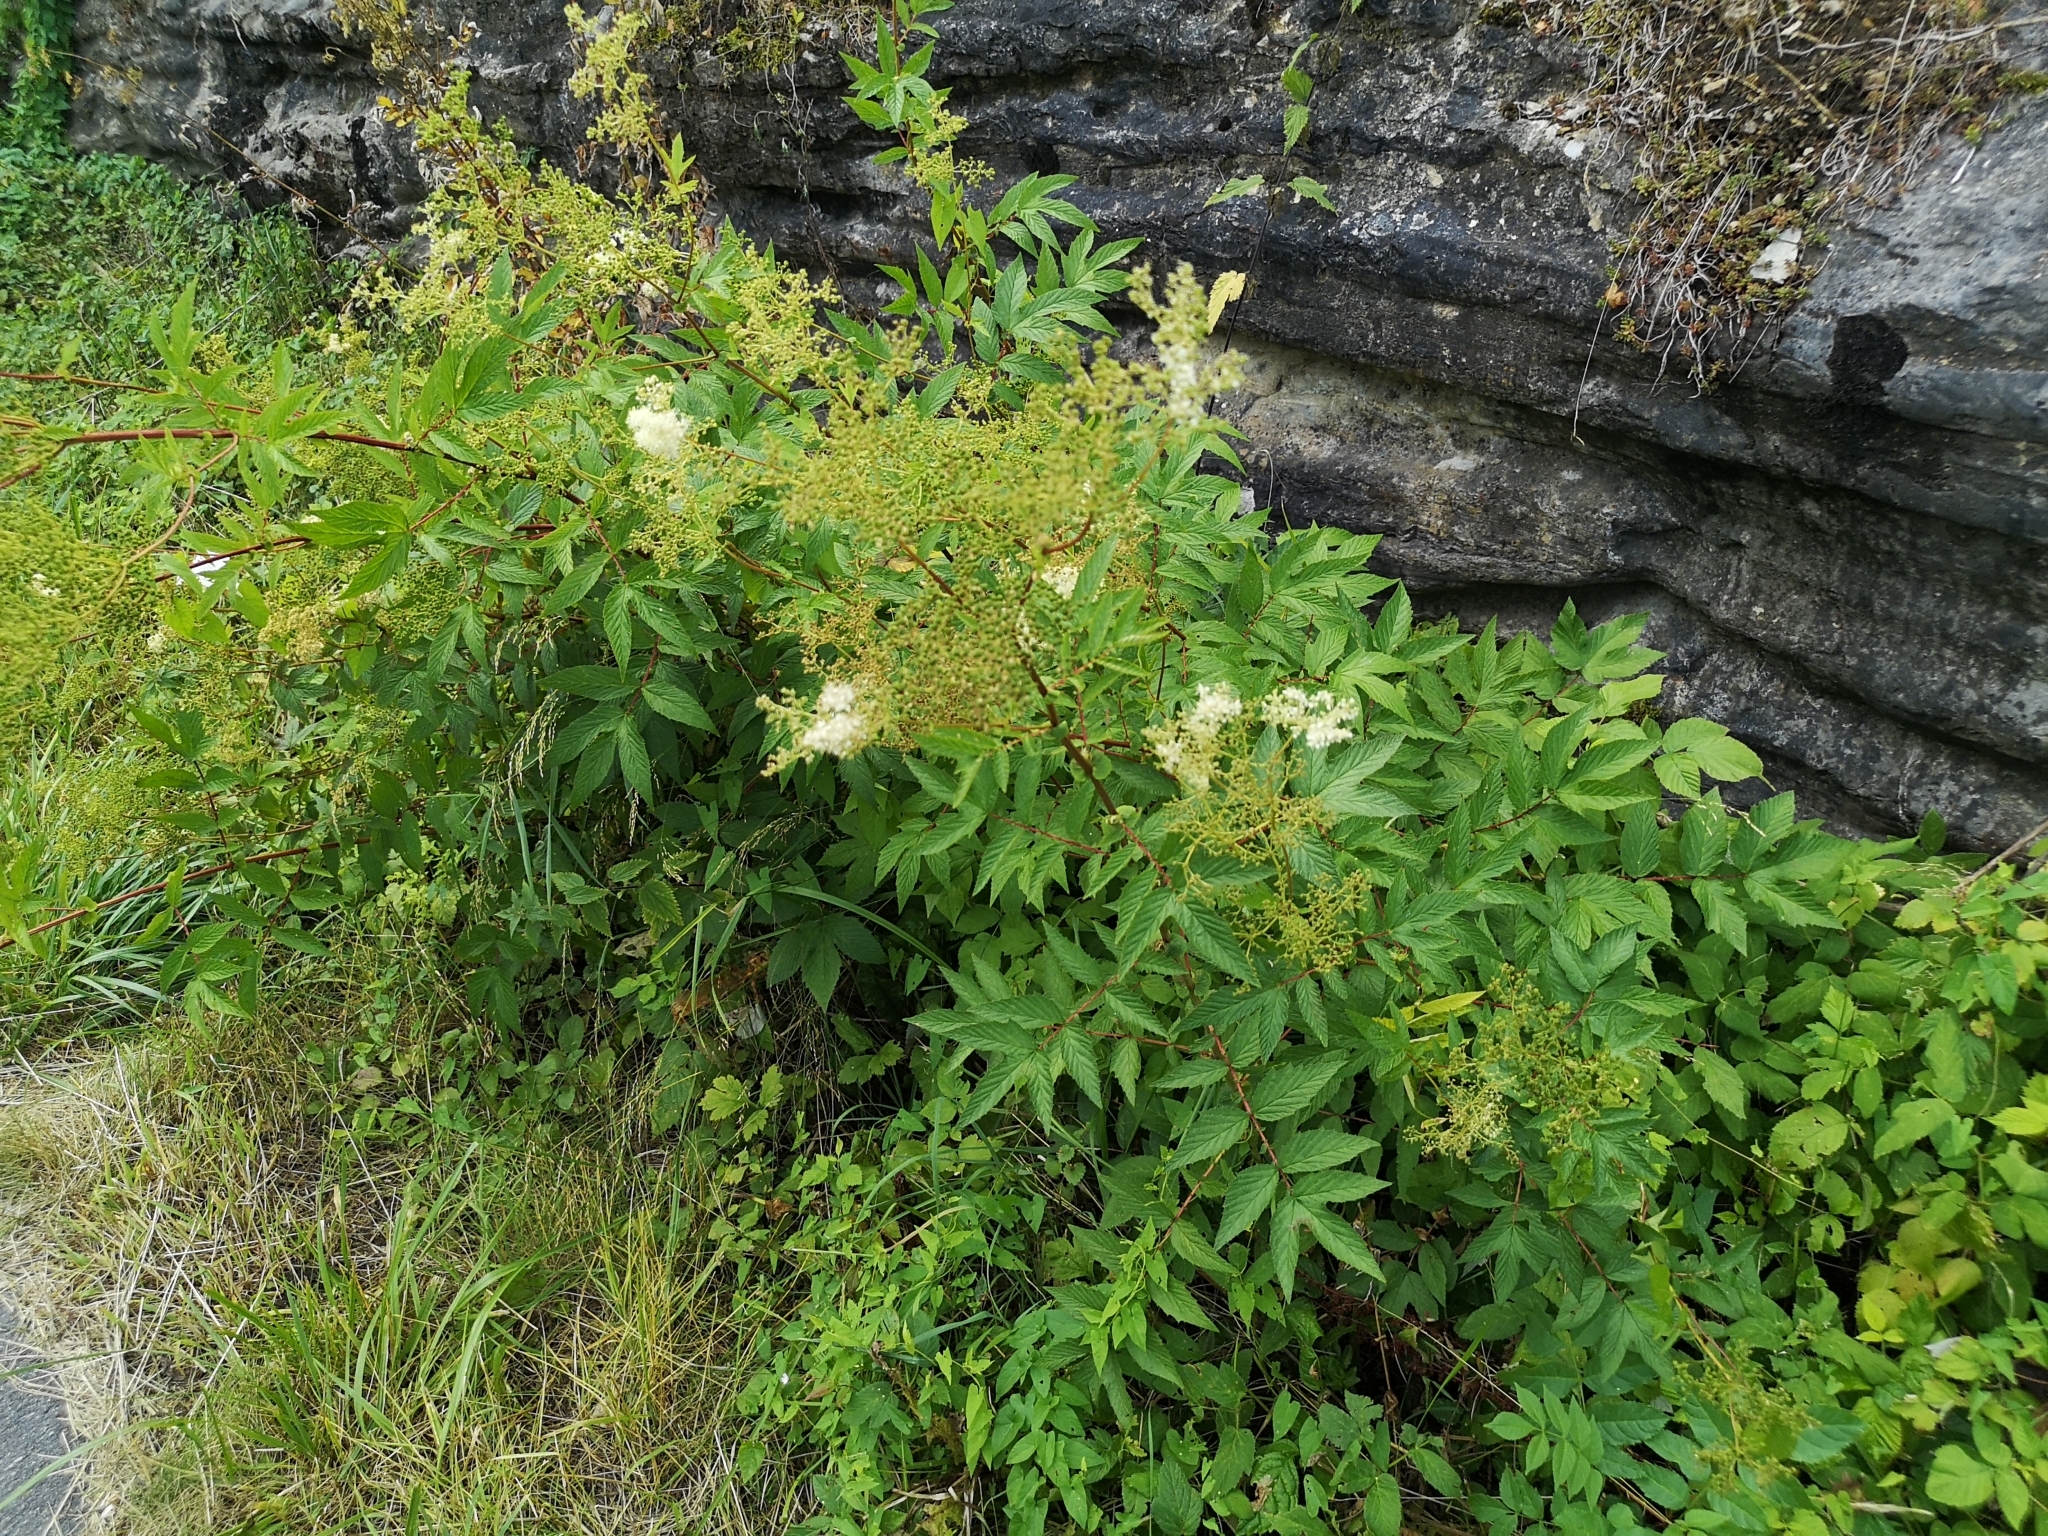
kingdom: Plantae
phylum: Tracheophyta
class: Magnoliopsida
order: Rosales
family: Rosaceae
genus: Filipendula
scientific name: Filipendula ulmaria
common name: Meadowsweet
